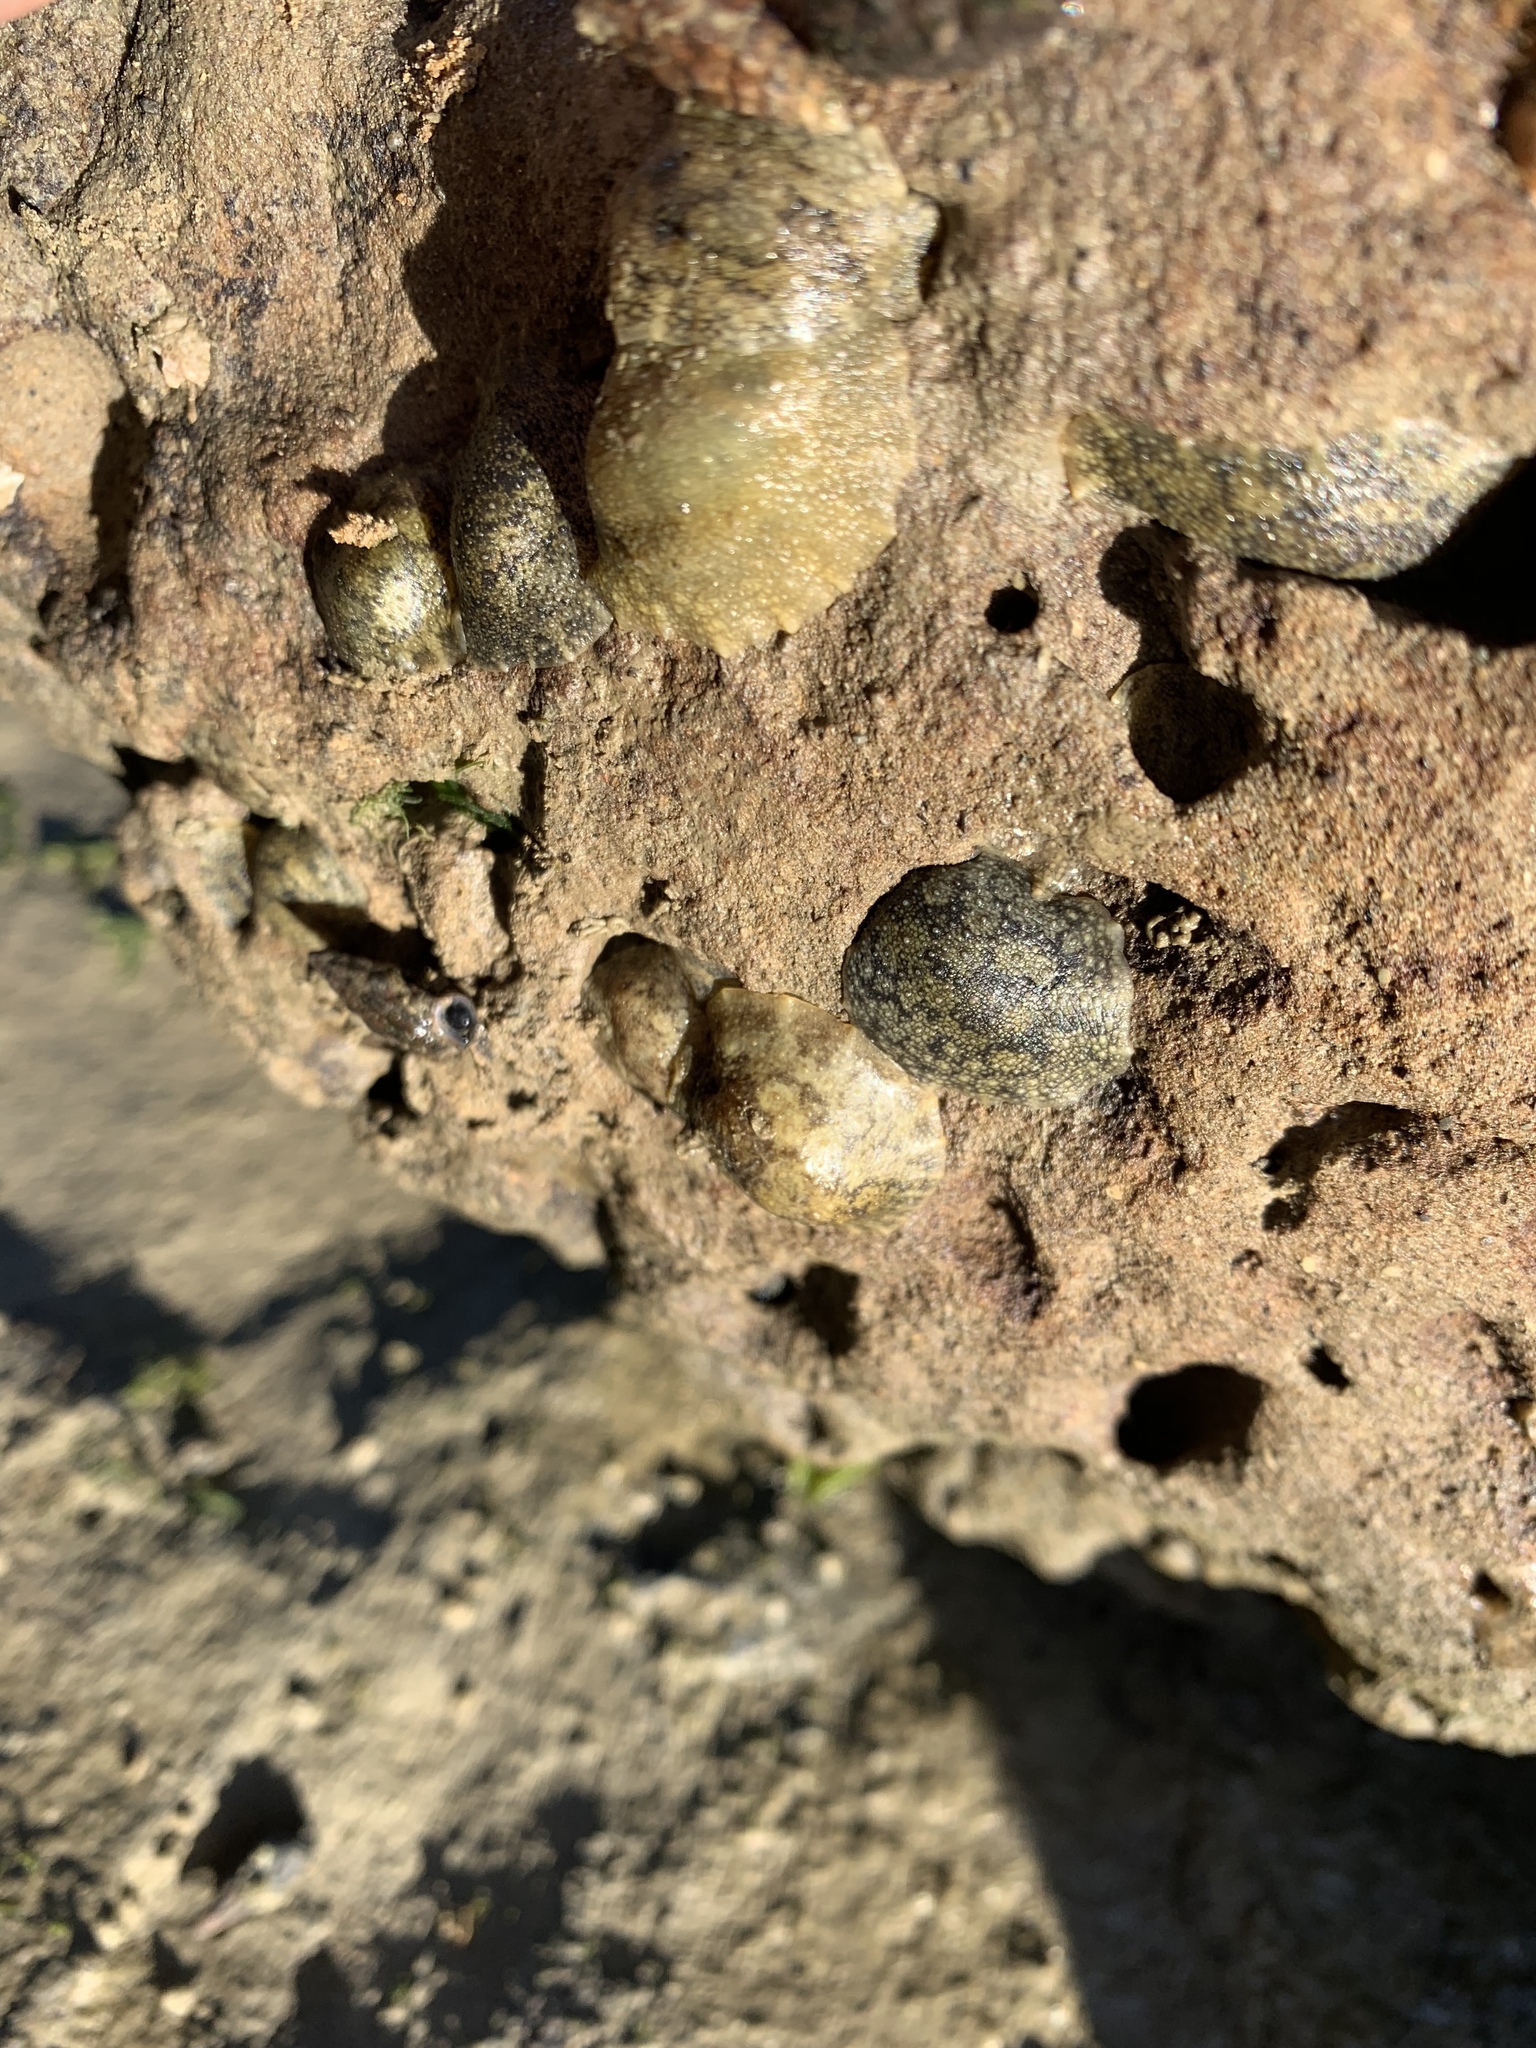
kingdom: Animalia
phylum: Mollusca
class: Gastropoda
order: Systellommatophora
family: Onchidiidae
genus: Onchidella
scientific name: Onchidella nigricans
